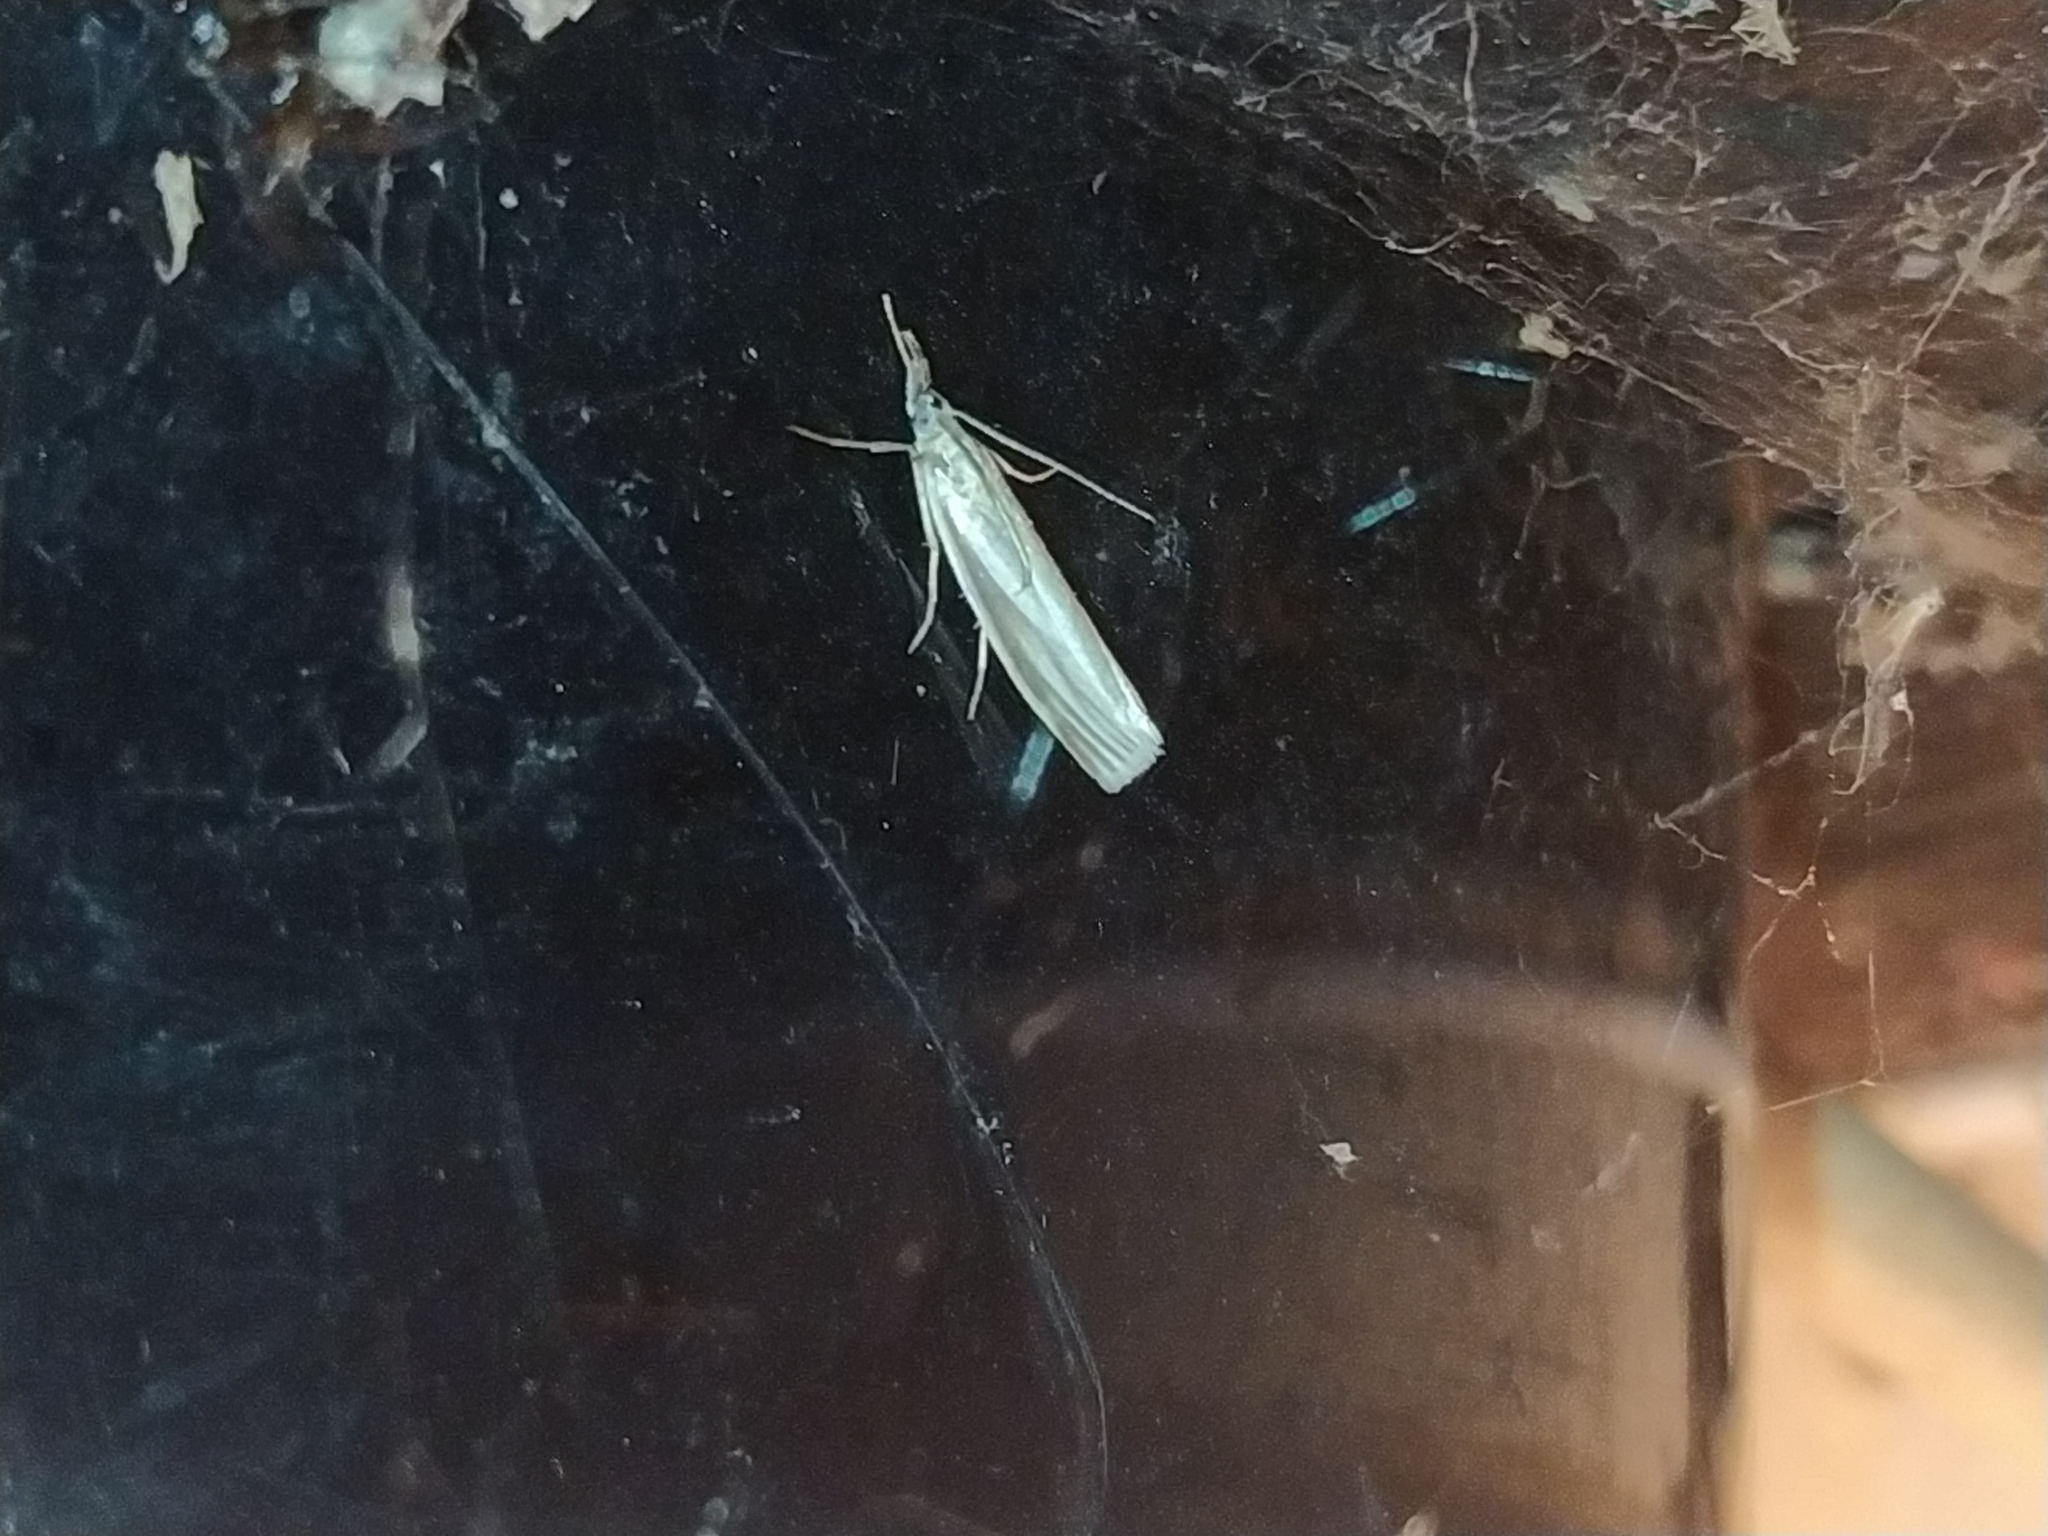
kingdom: Animalia
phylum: Arthropoda
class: Insecta
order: Lepidoptera
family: Crambidae
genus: Crambus
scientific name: Crambus perlellus
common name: Yellow satin veneer
